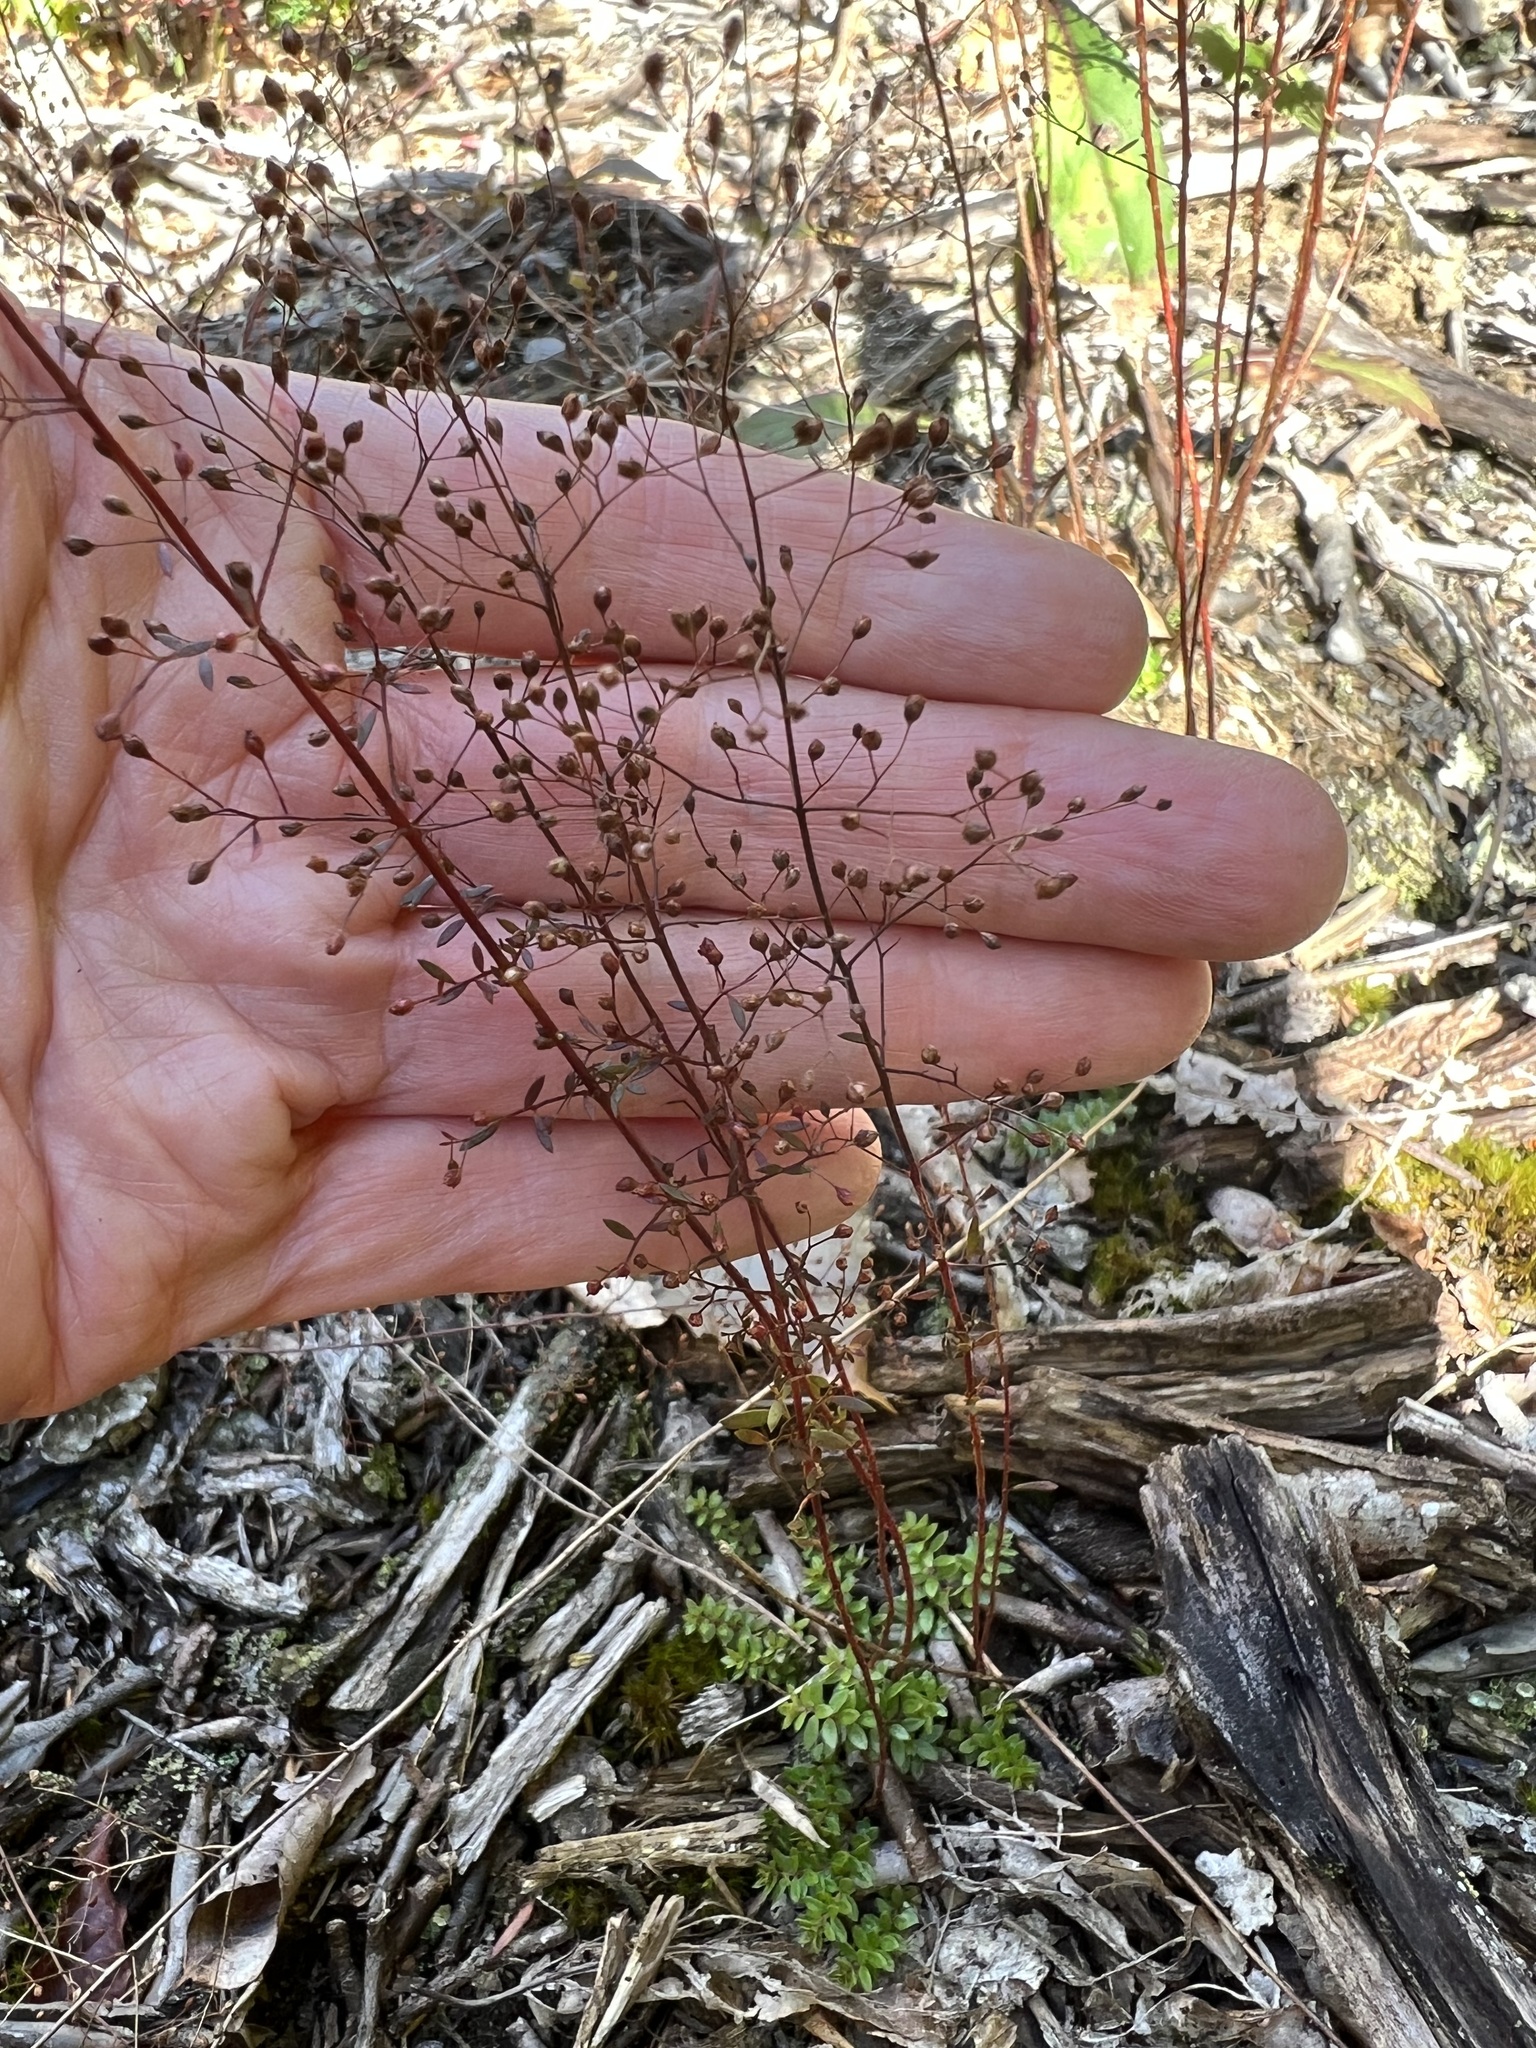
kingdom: Plantae
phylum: Tracheophyta
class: Magnoliopsida
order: Malvales
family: Cistaceae
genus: Lechea
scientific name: Lechea intermedia
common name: Intermediate pinweed
